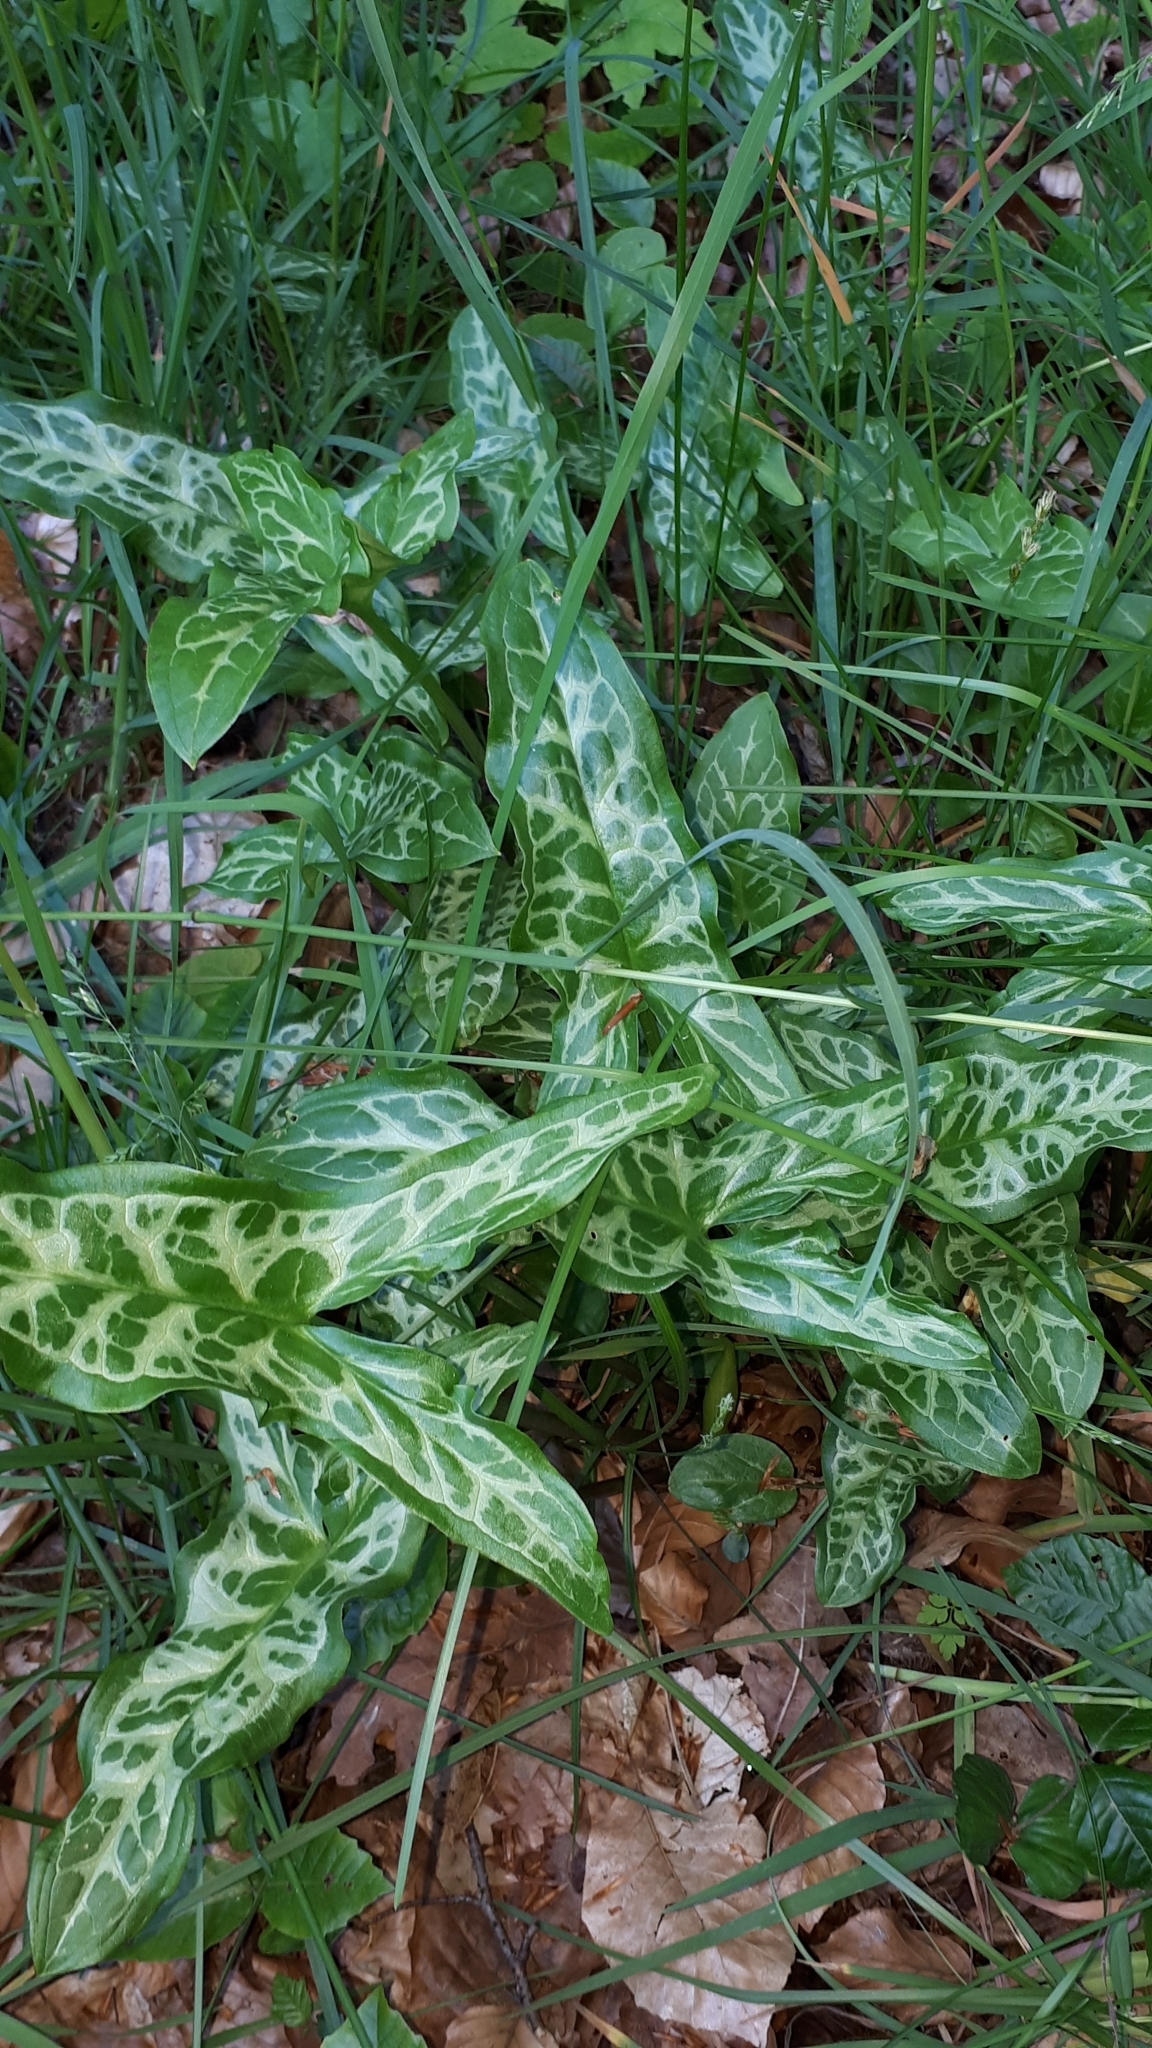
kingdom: Plantae
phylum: Tracheophyta
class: Liliopsida
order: Alismatales
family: Araceae
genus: Arum
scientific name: Arum italicum
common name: Italian lords-and-ladies
